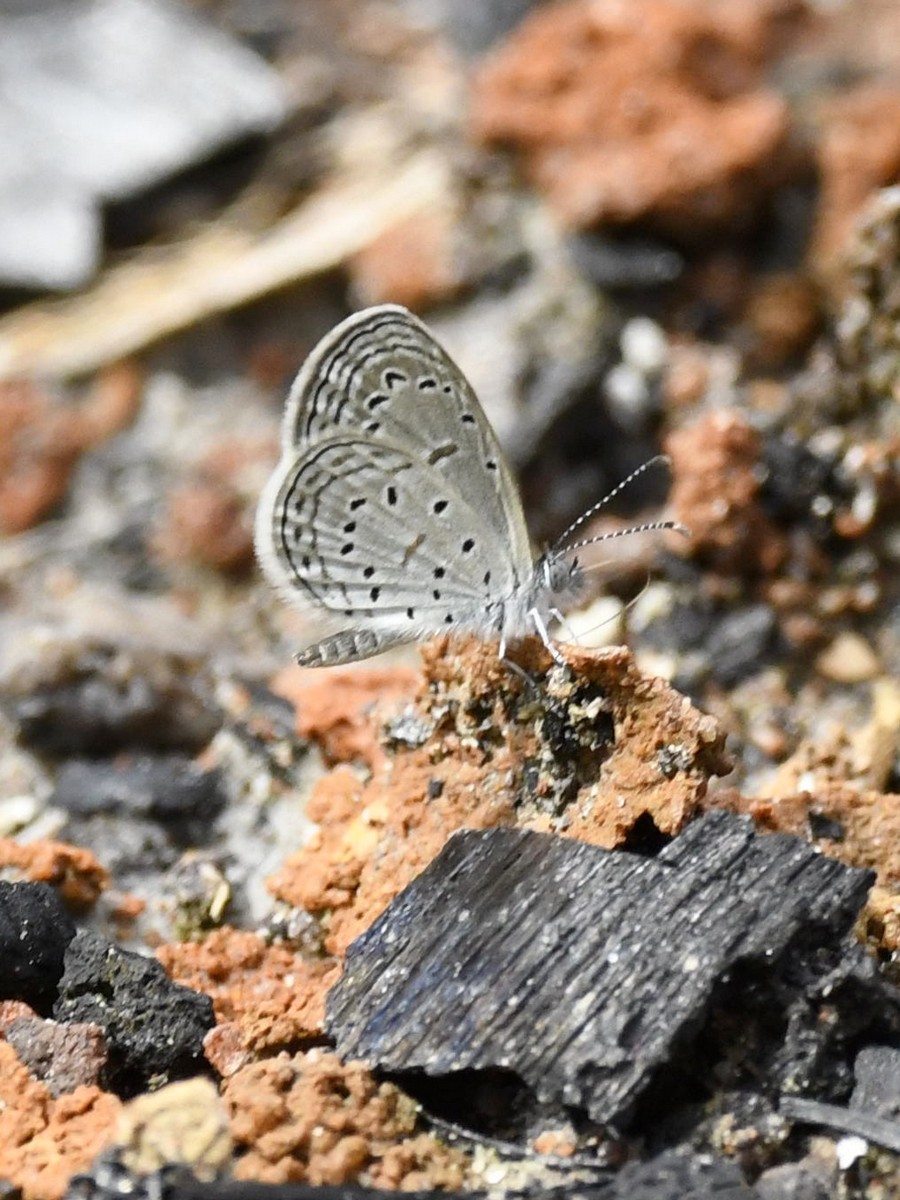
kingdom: Animalia
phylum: Arthropoda
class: Insecta
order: Lepidoptera
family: Lycaenidae
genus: Zizula
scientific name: Zizula hylax
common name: Gaika blue
